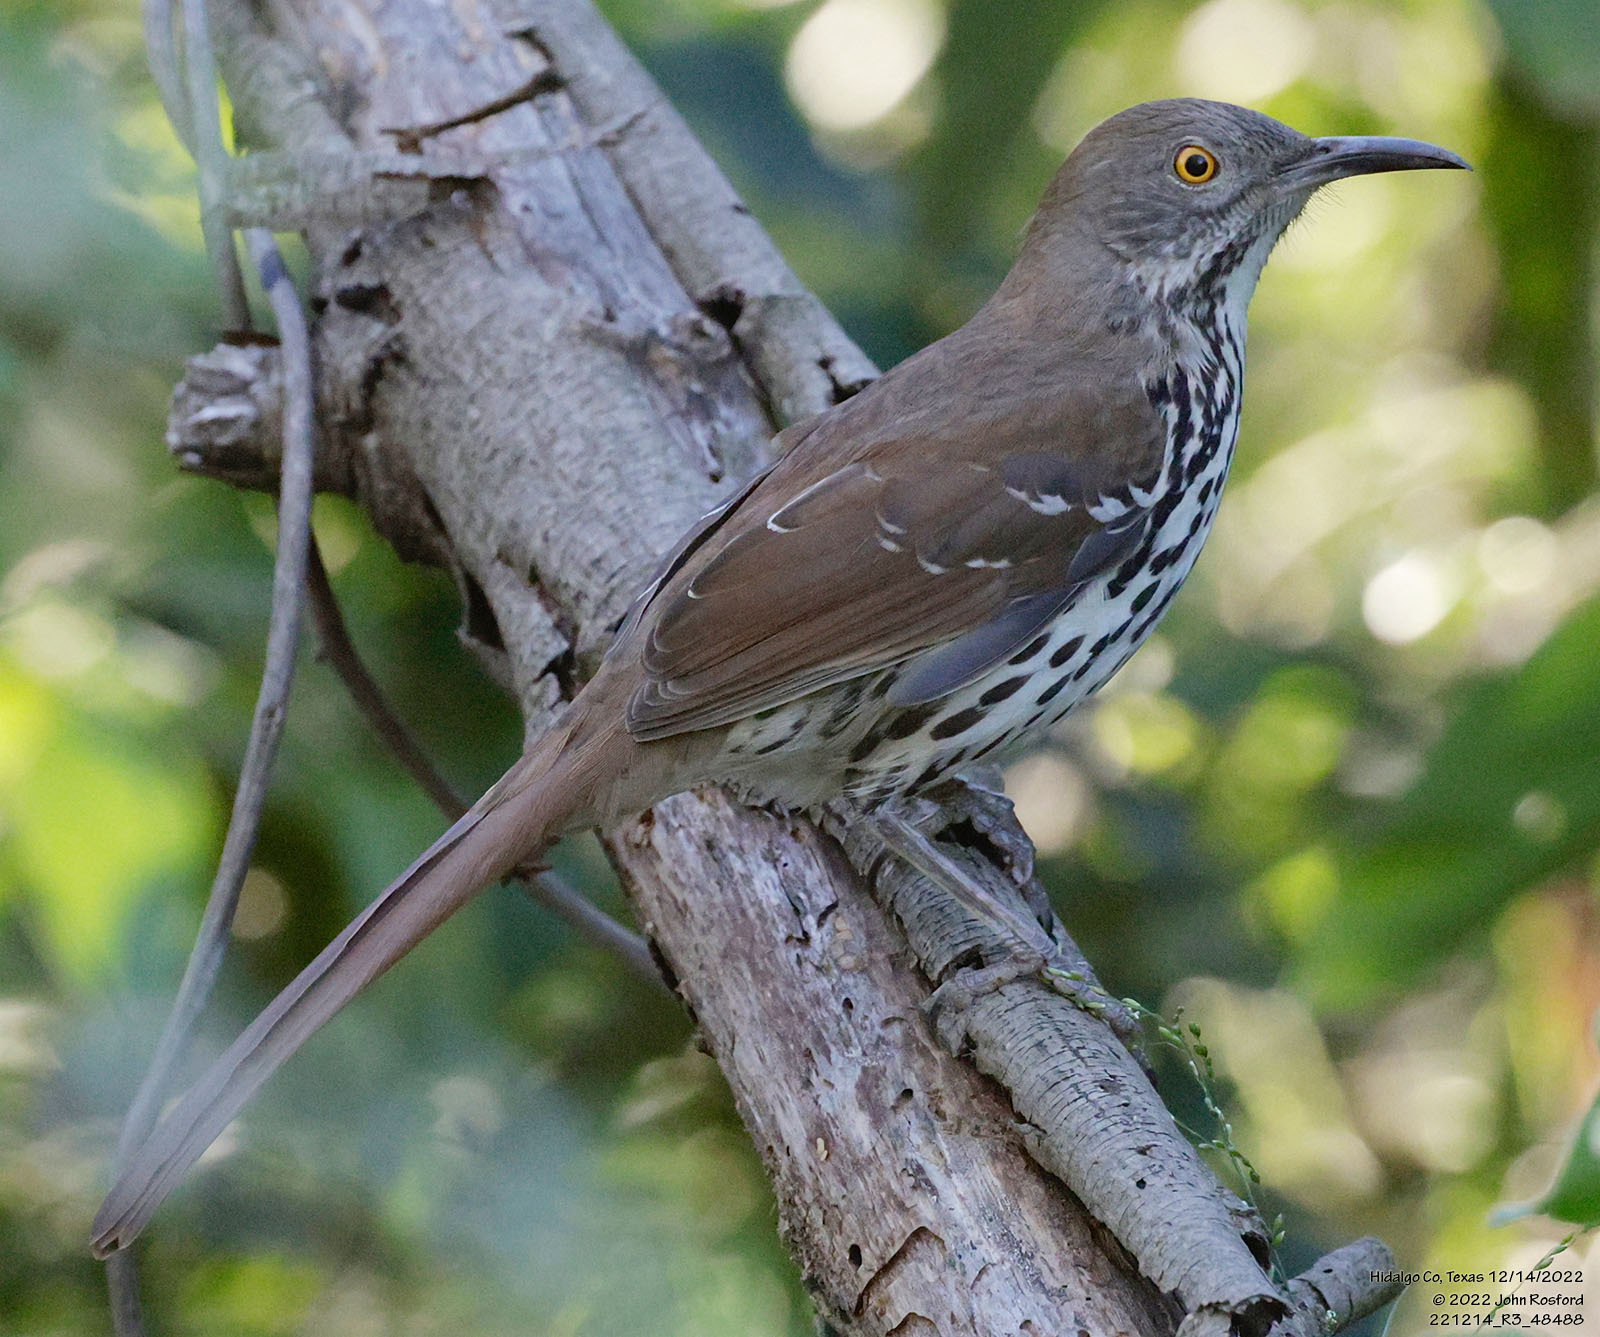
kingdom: Animalia
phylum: Chordata
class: Aves
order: Passeriformes
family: Mimidae
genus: Toxostoma
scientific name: Toxostoma longirostre
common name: Long-billed thrasher
